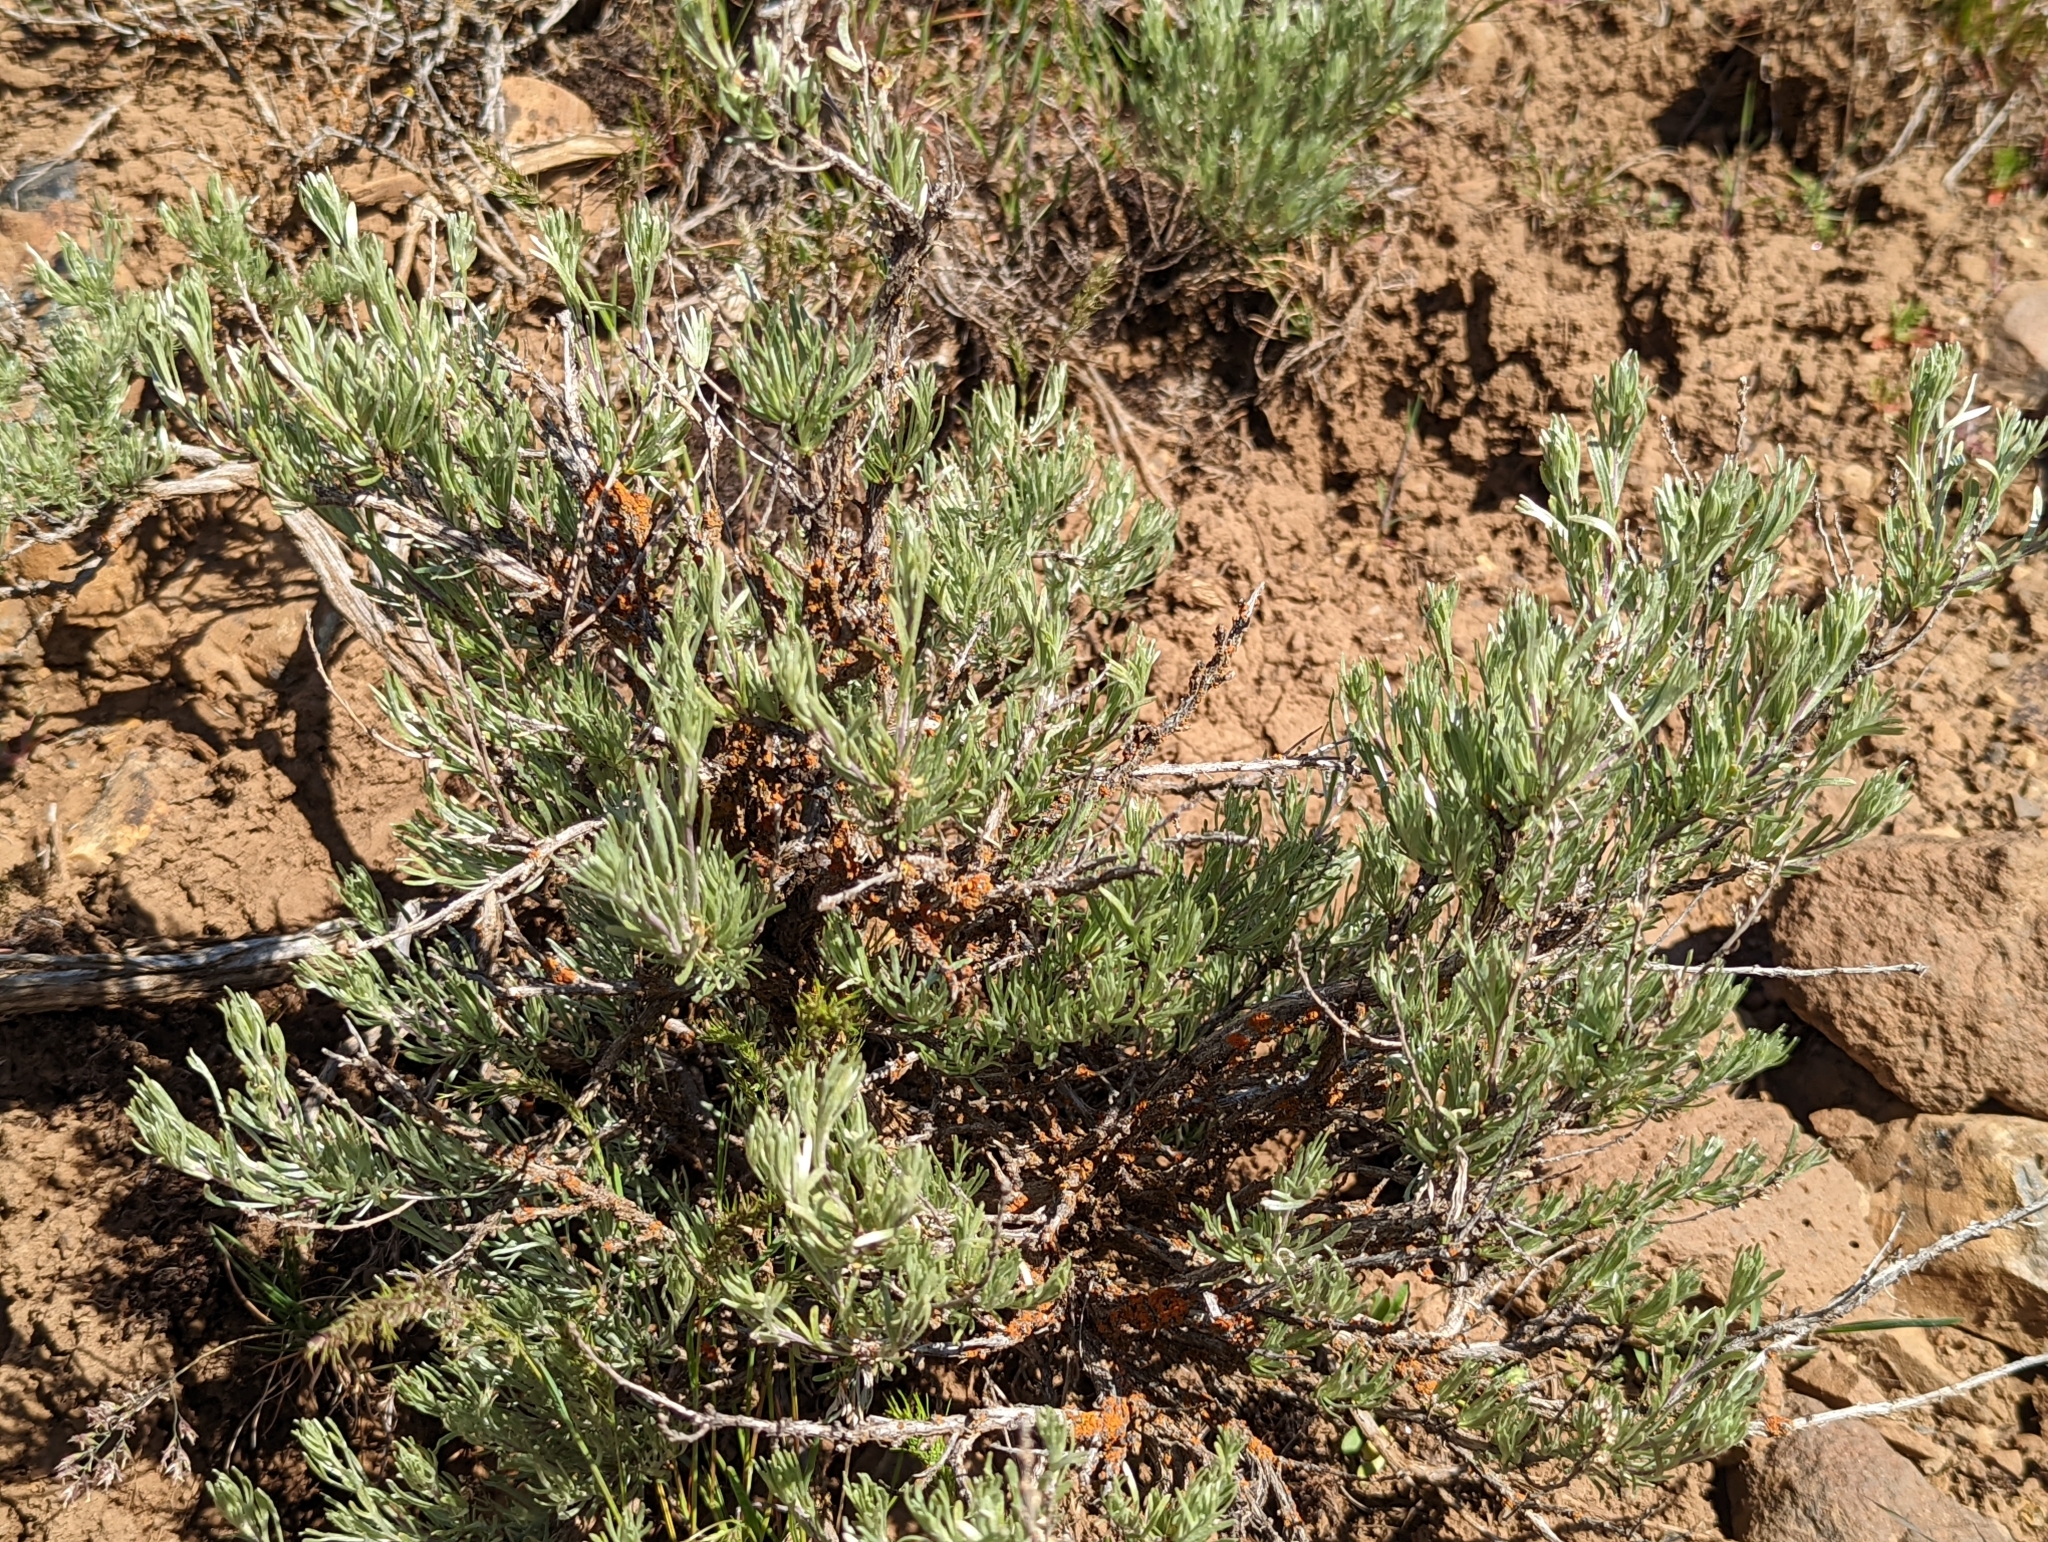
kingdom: Plantae
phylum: Tracheophyta
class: Magnoliopsida
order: Asterales
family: Asteraceae
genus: Artemisia
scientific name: Artemisia tripartita
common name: Three-tip sagebrush
